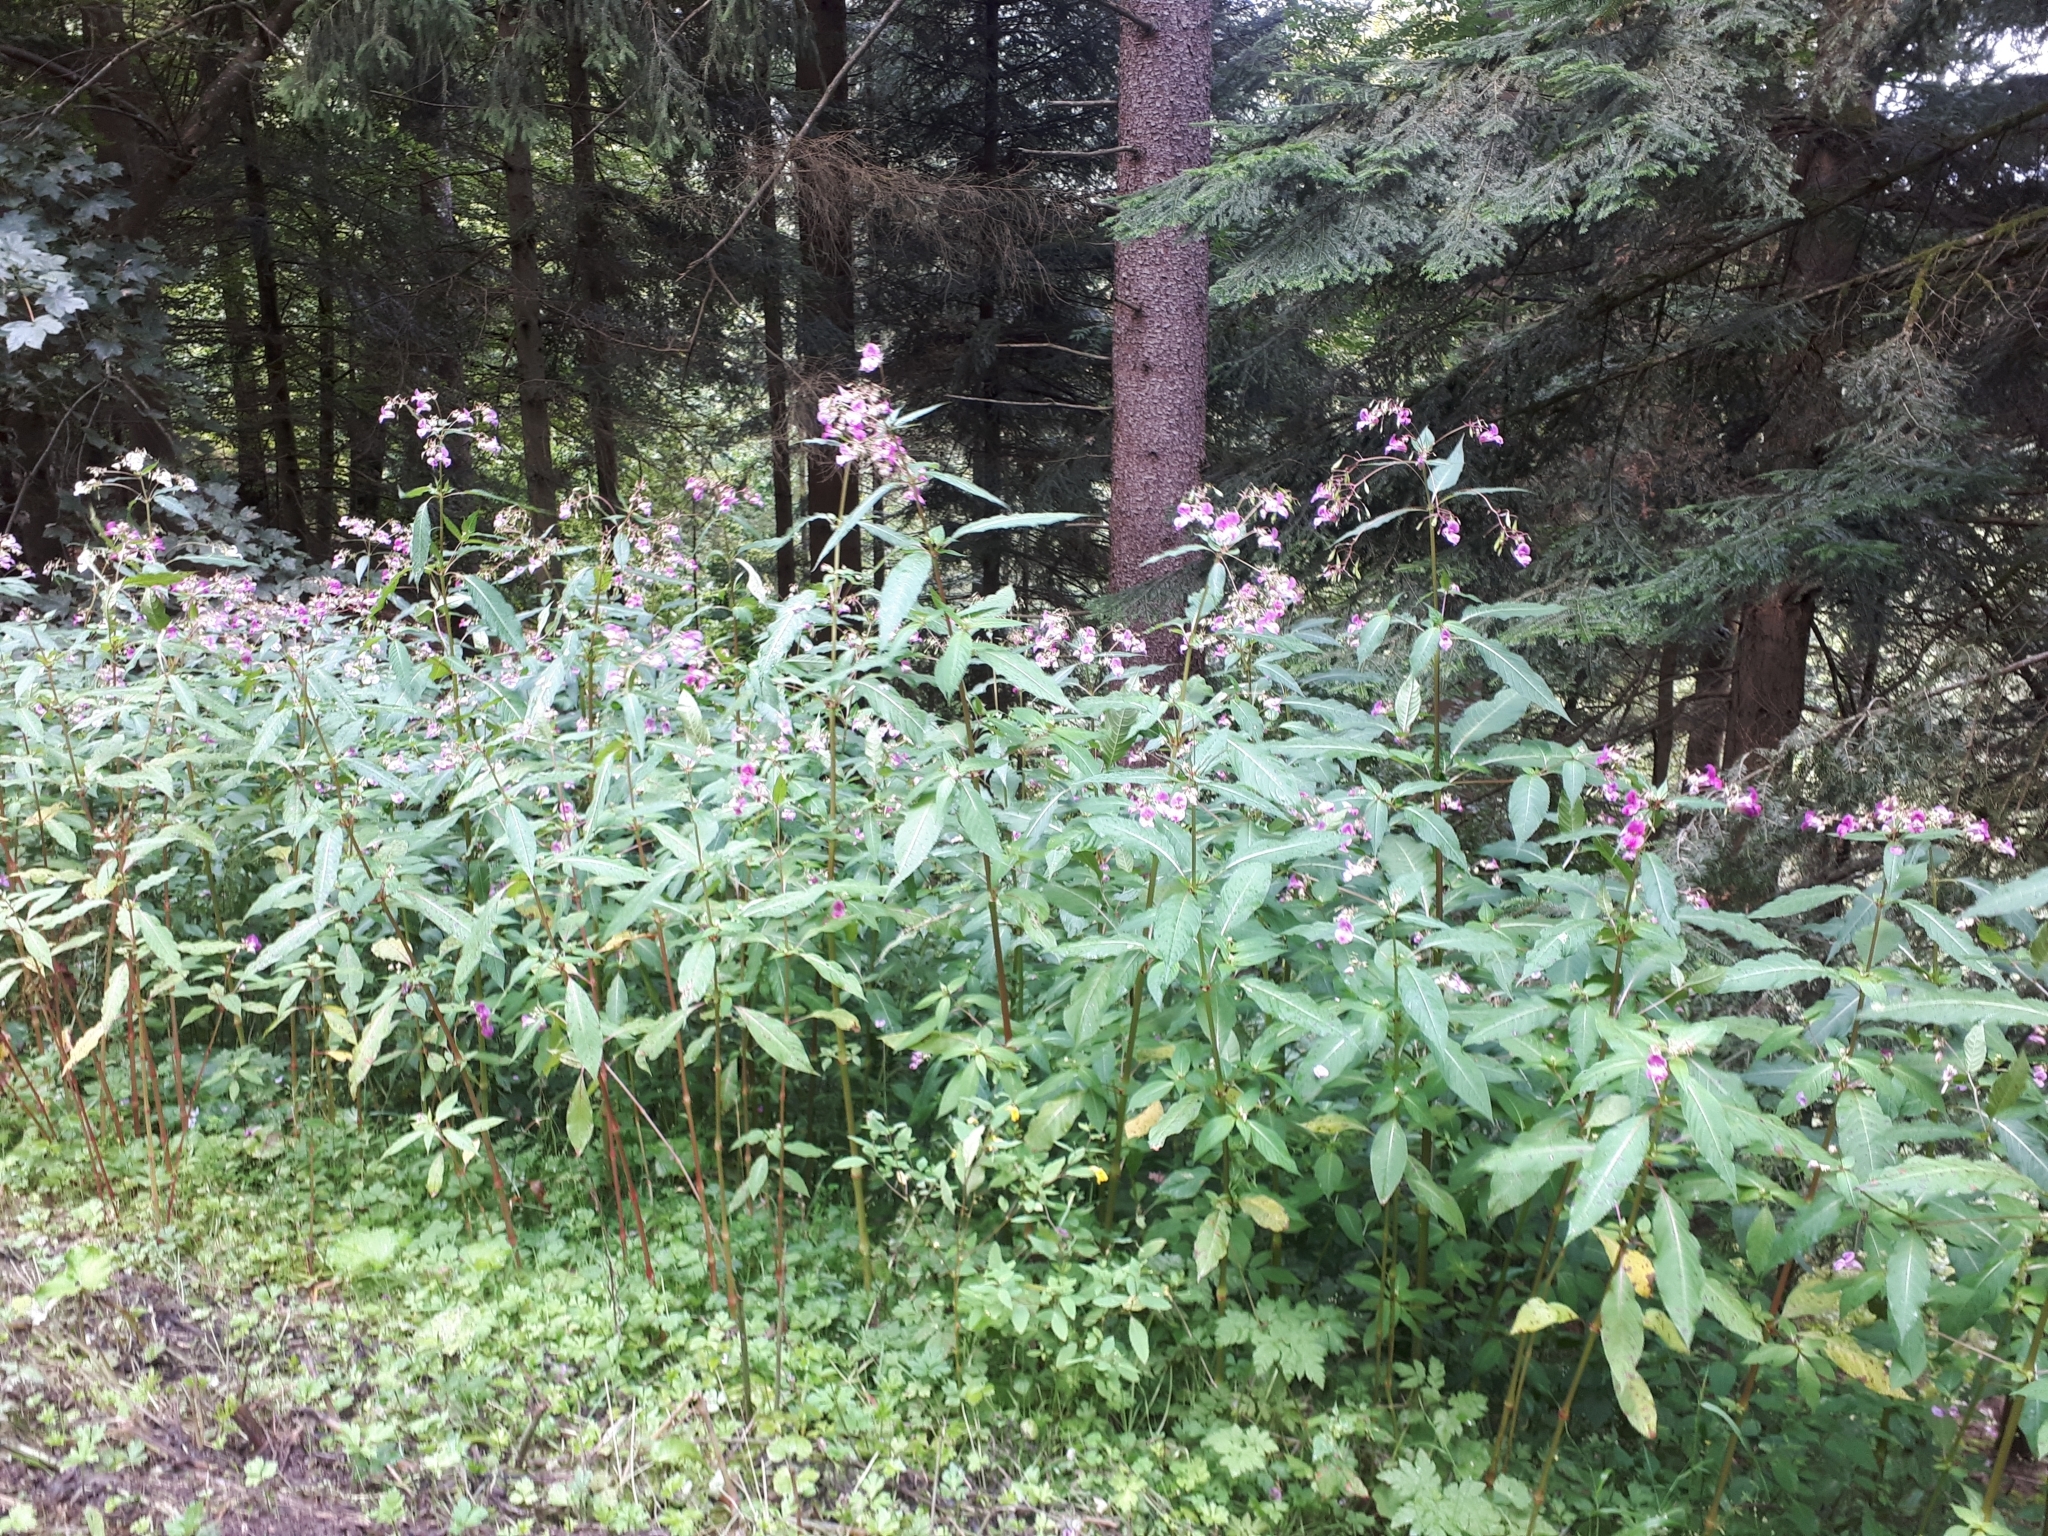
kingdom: Plantae
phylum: Tracheophyta
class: Magnoliopsida
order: Ericales
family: Balsaminaceae
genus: Impatiens
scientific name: Impatiens glandulifera
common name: Himalayan balsam
